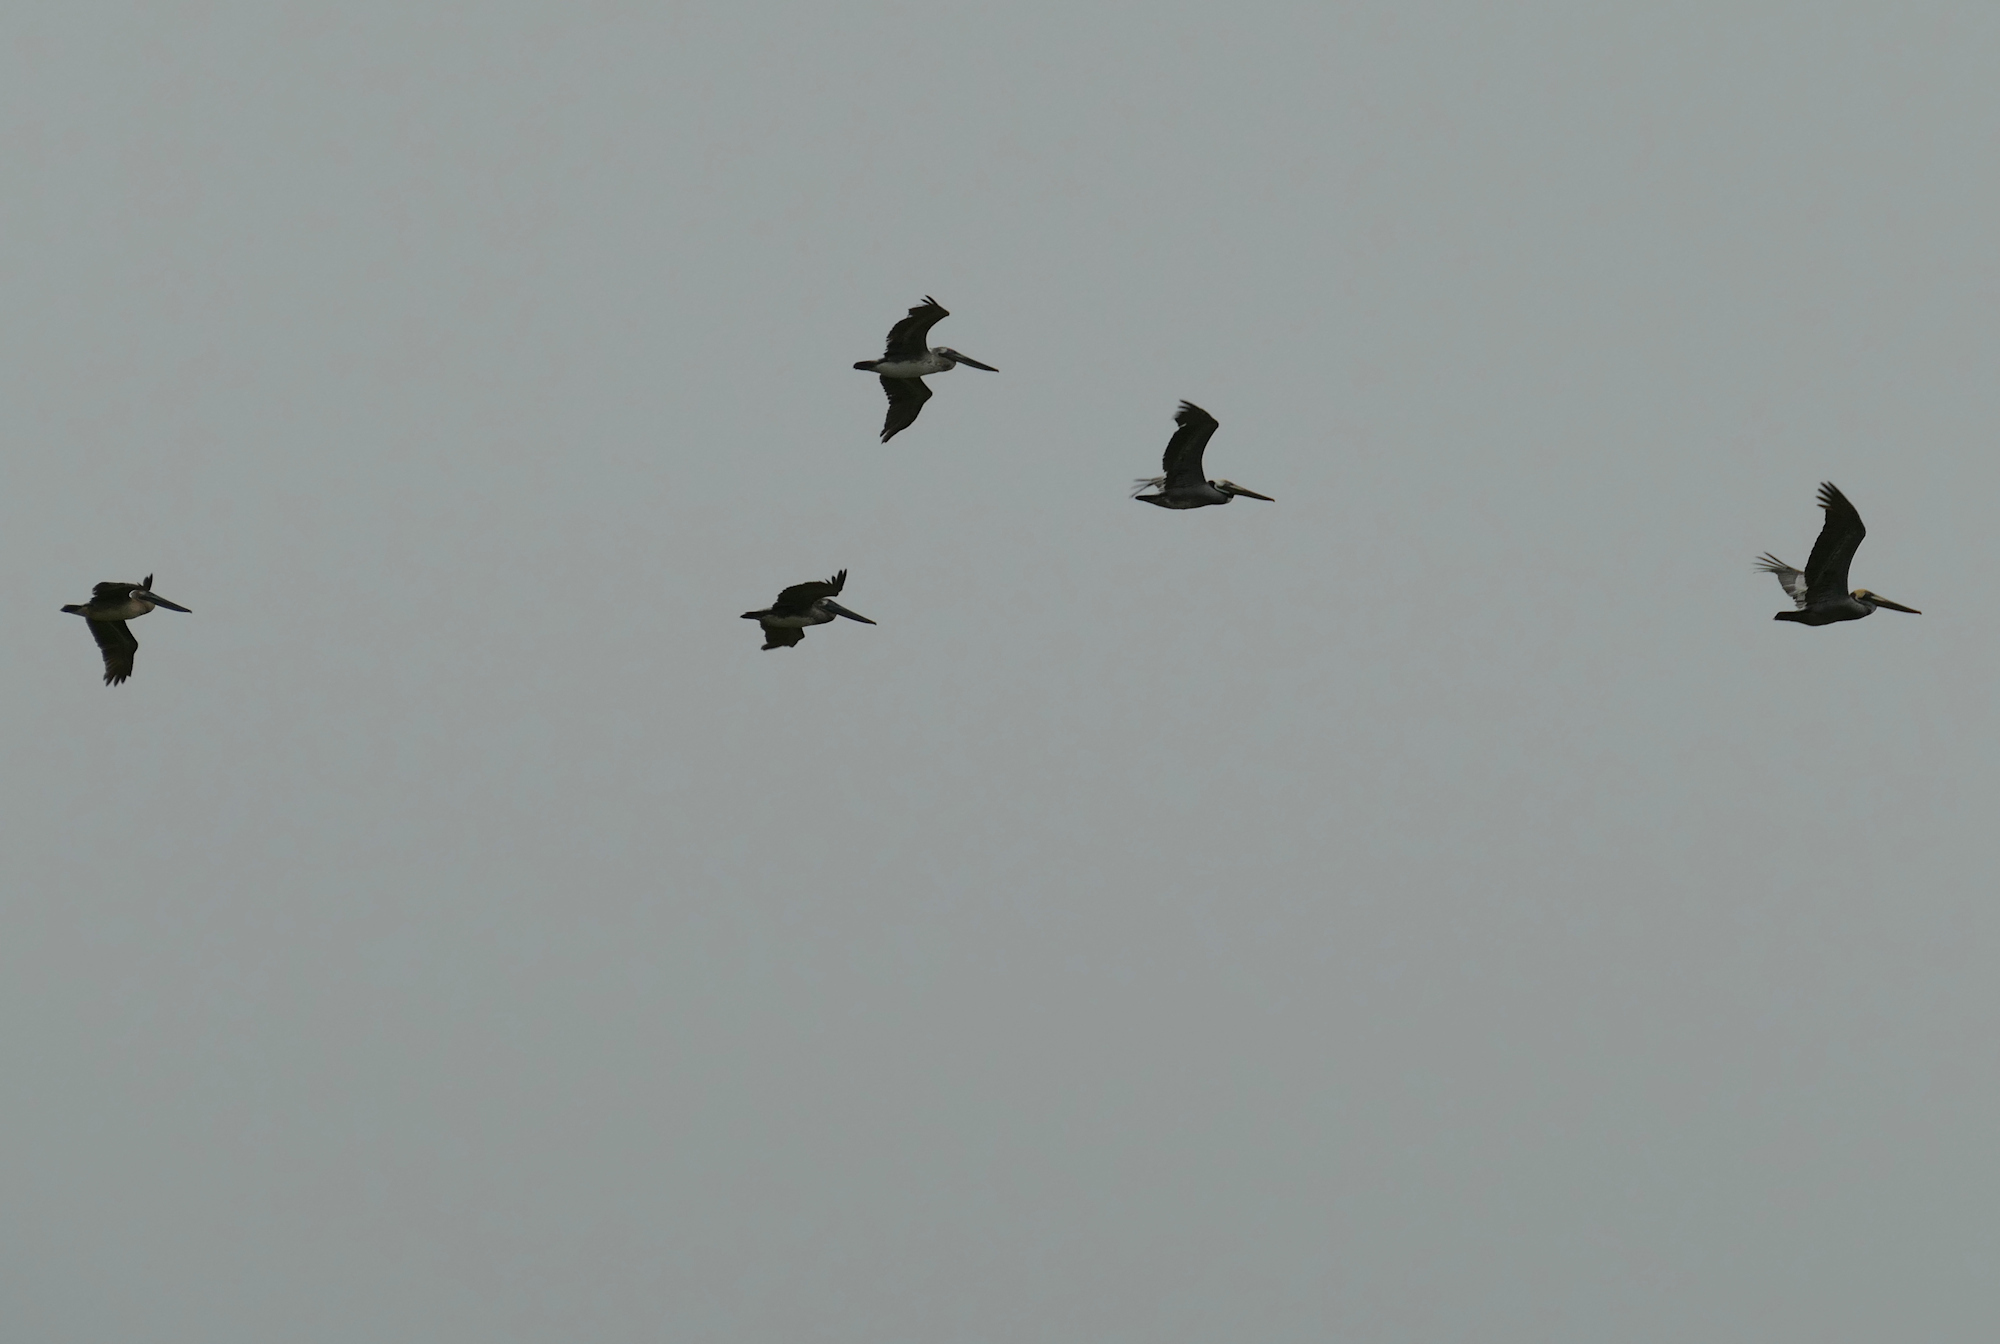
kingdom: Animalia
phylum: Chordata
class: Aves
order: Pelecaniformes
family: Pelecanidae
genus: Pelecanus
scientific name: Pelecanus occidentalis
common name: Brown pelican
